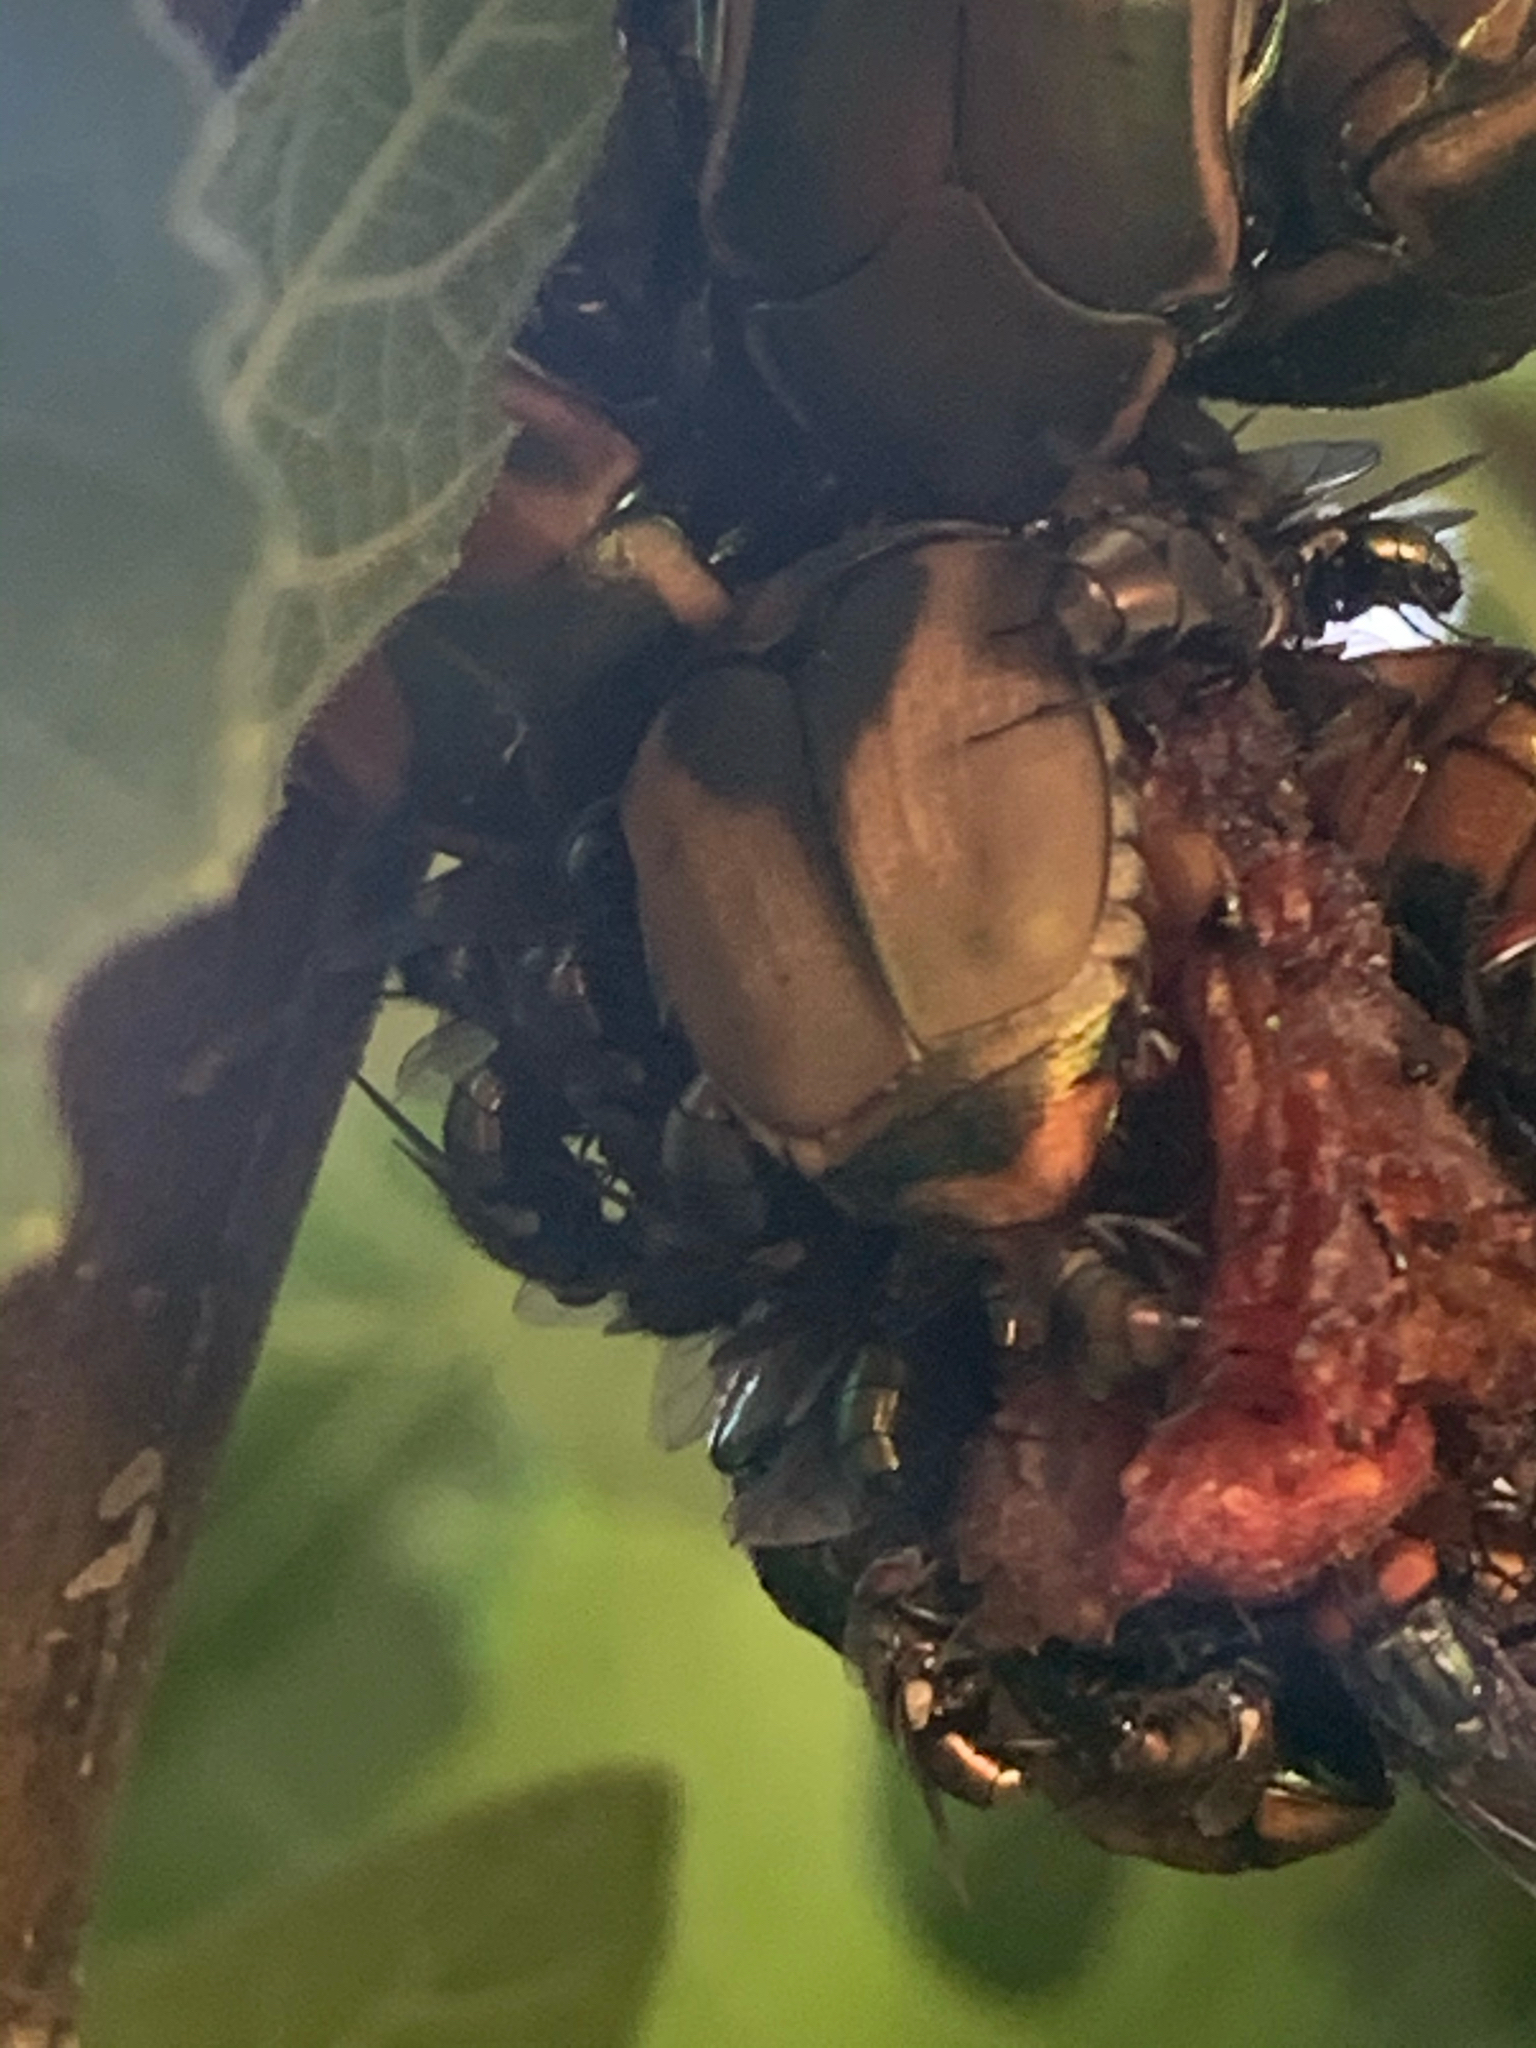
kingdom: Animalia
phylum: Arthropoda
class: Insecta
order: Coleoptera
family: Scarabaeidae
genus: Cotinis
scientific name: Cotinis nitida
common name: Common green june beetle
